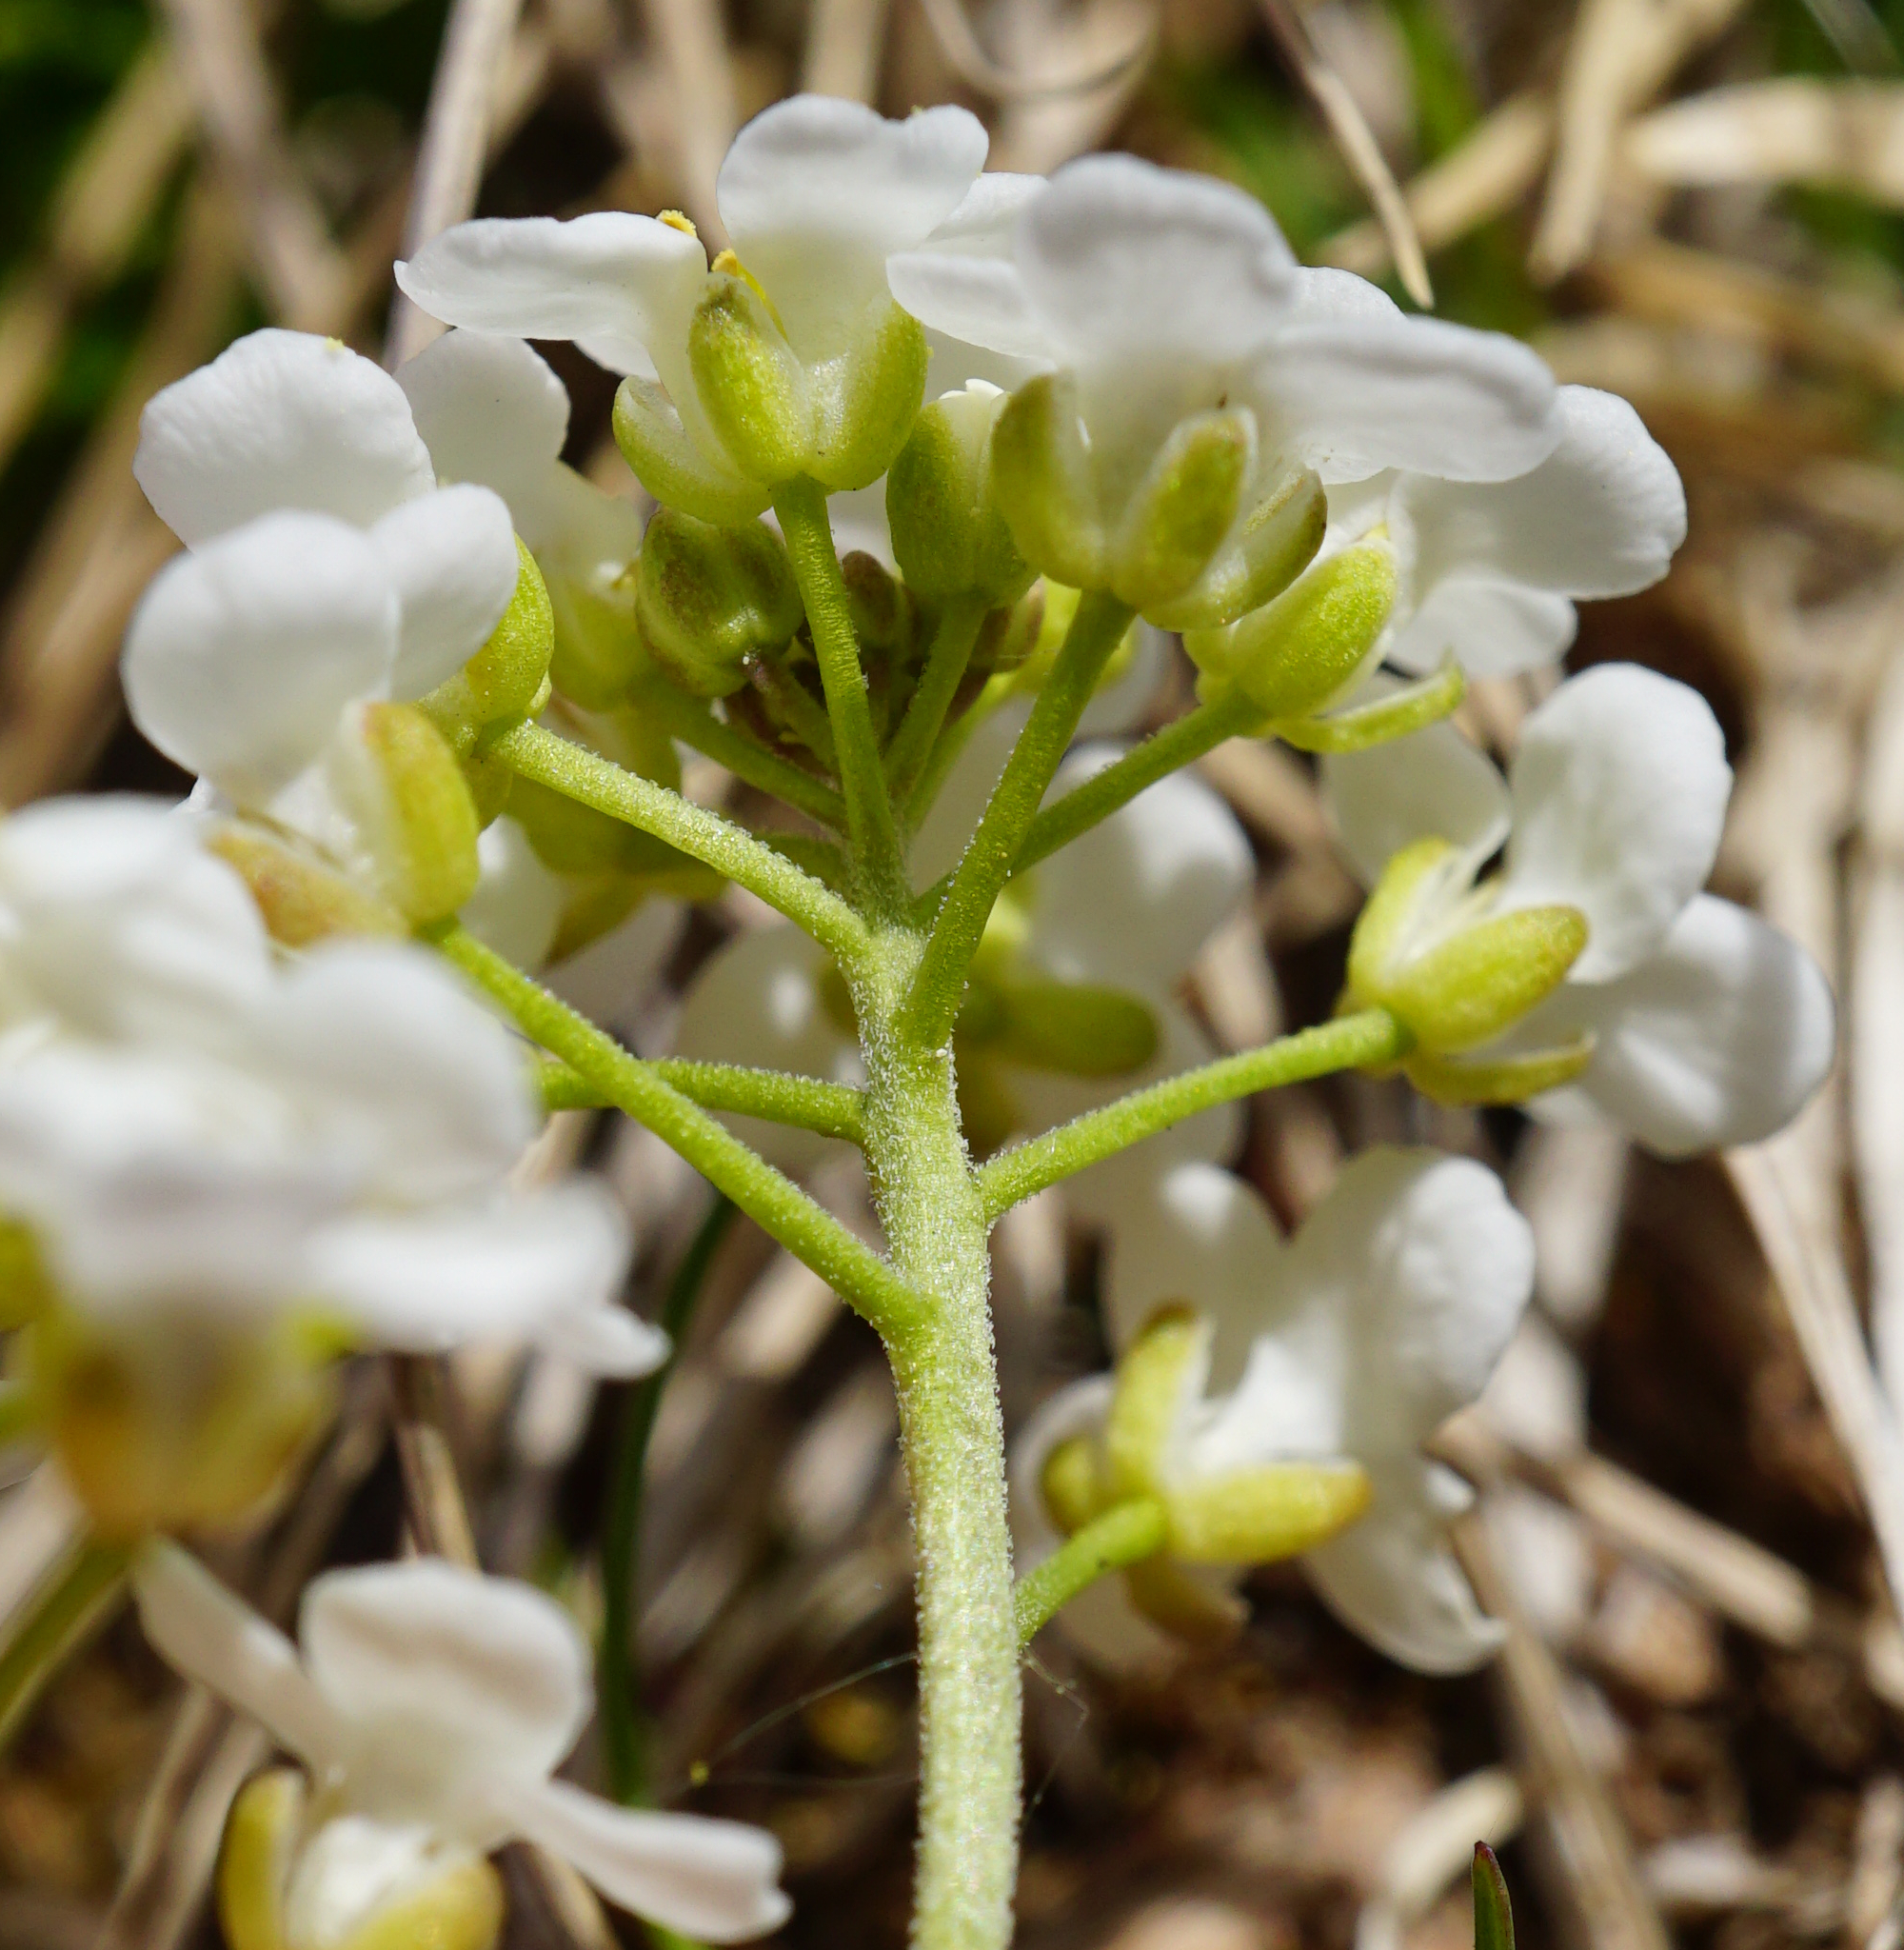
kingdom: Plantae
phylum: Tracheophyta
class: Magnoliopsida
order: Brassicales
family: Brassicaceae
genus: Hornungia
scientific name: Hornungia alpina
